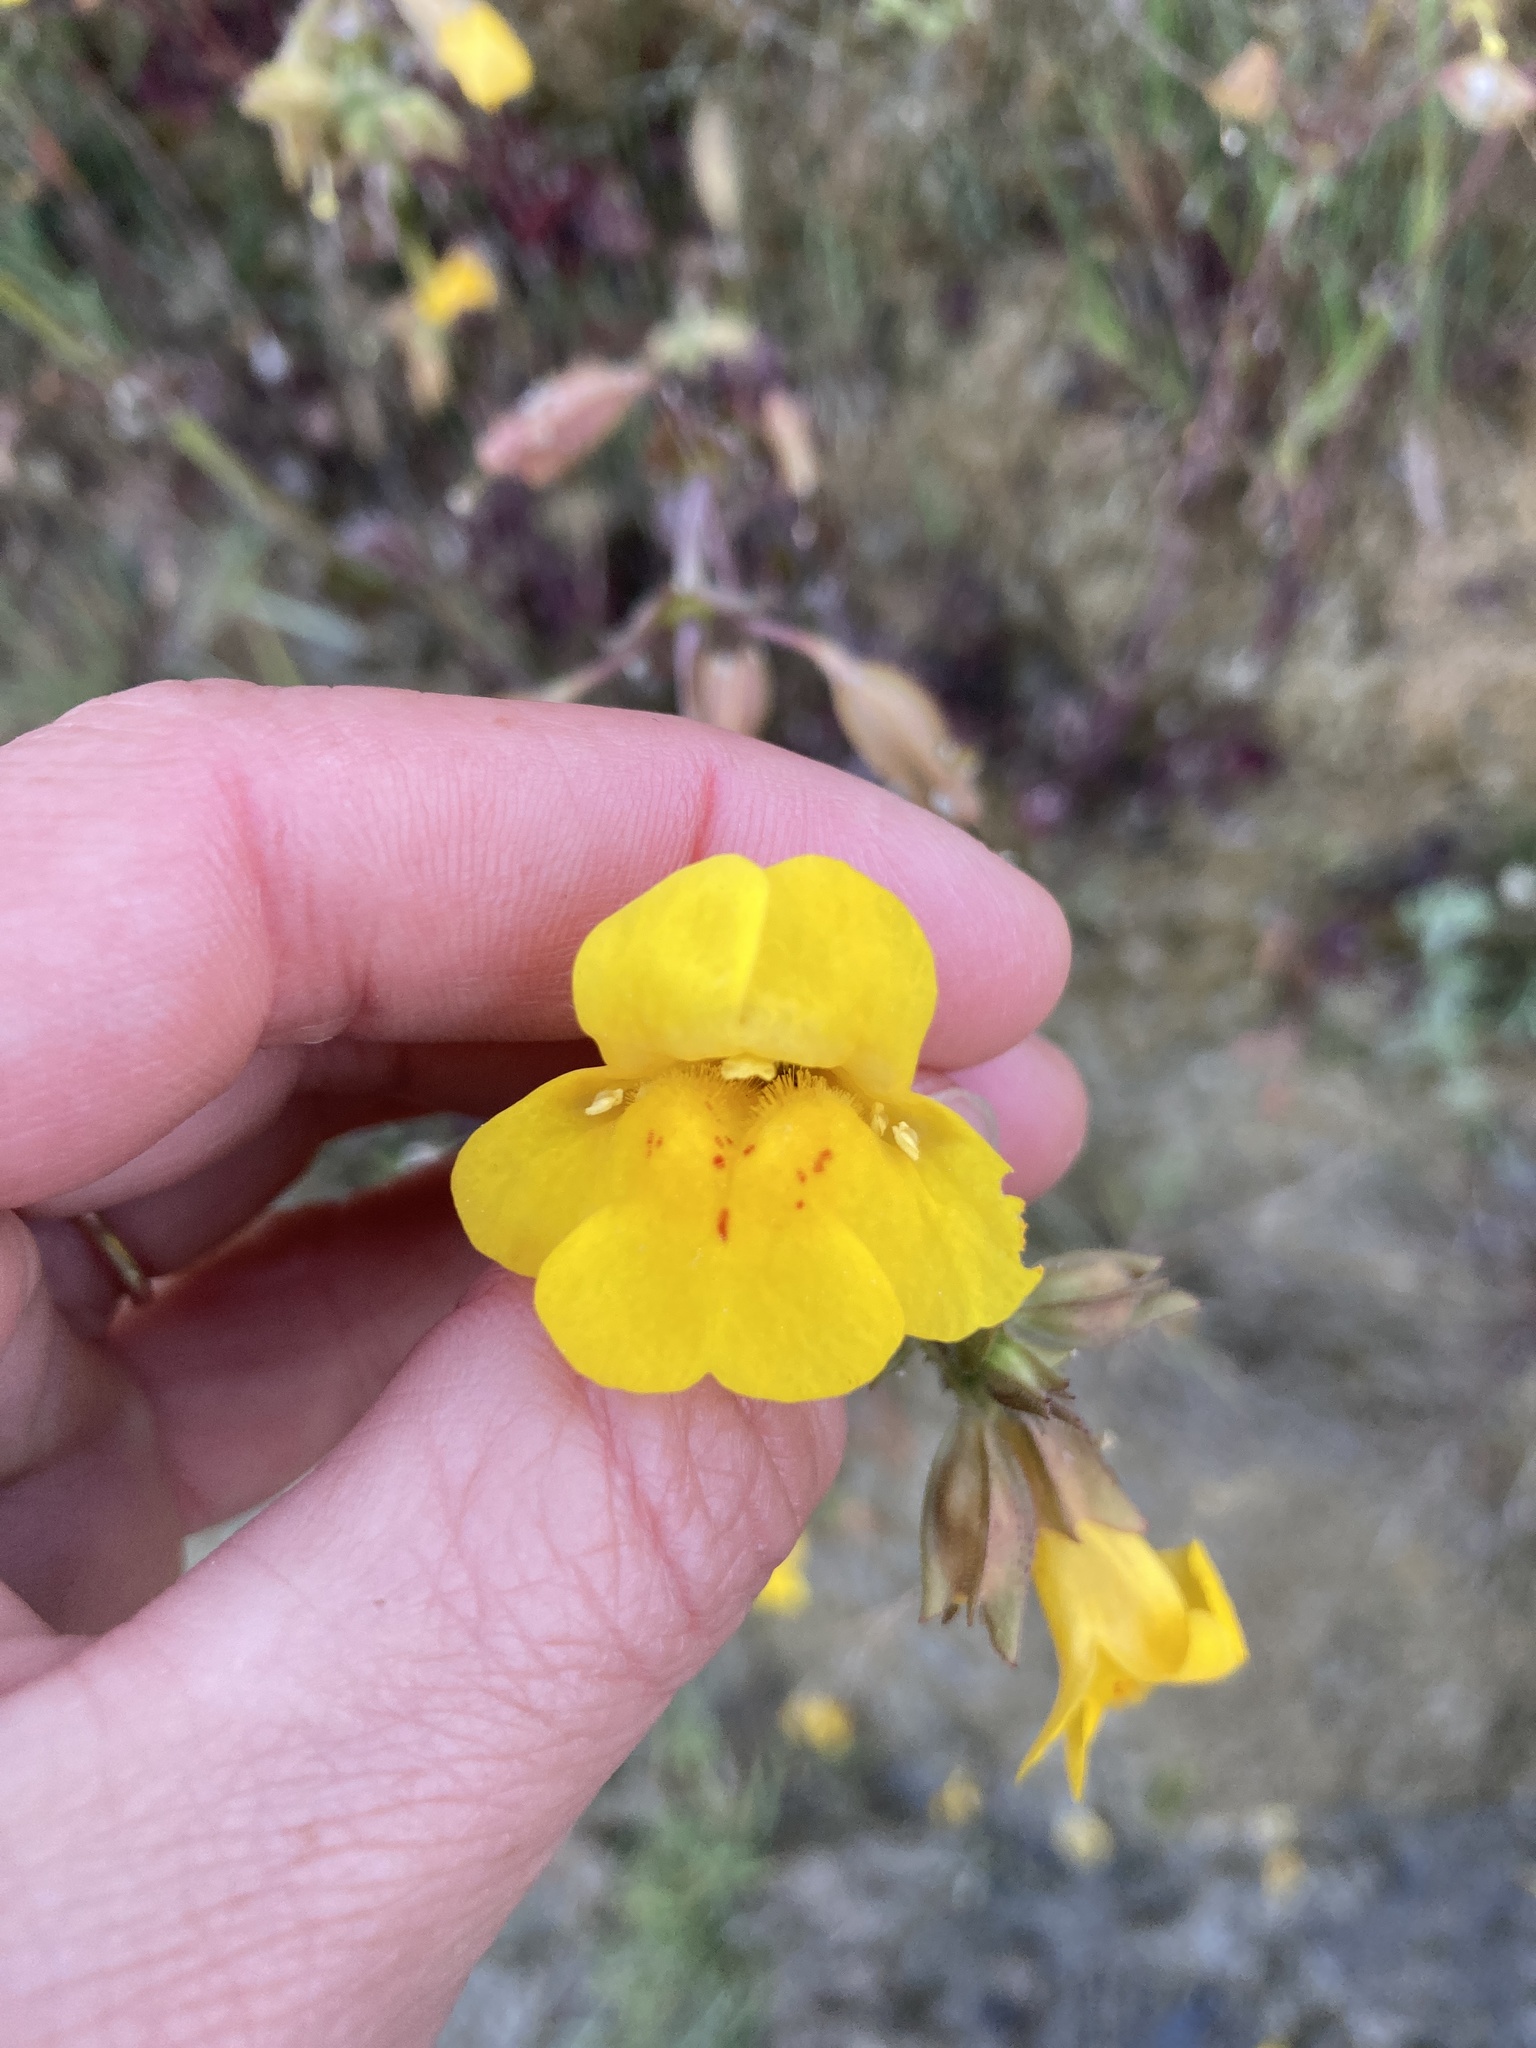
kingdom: Plantae
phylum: Tracheophyta
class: Magnoliopsida
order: Lamiales
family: Phrymaceae
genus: Erythranthe
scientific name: Erythranthe guttata
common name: Monkeyflower
